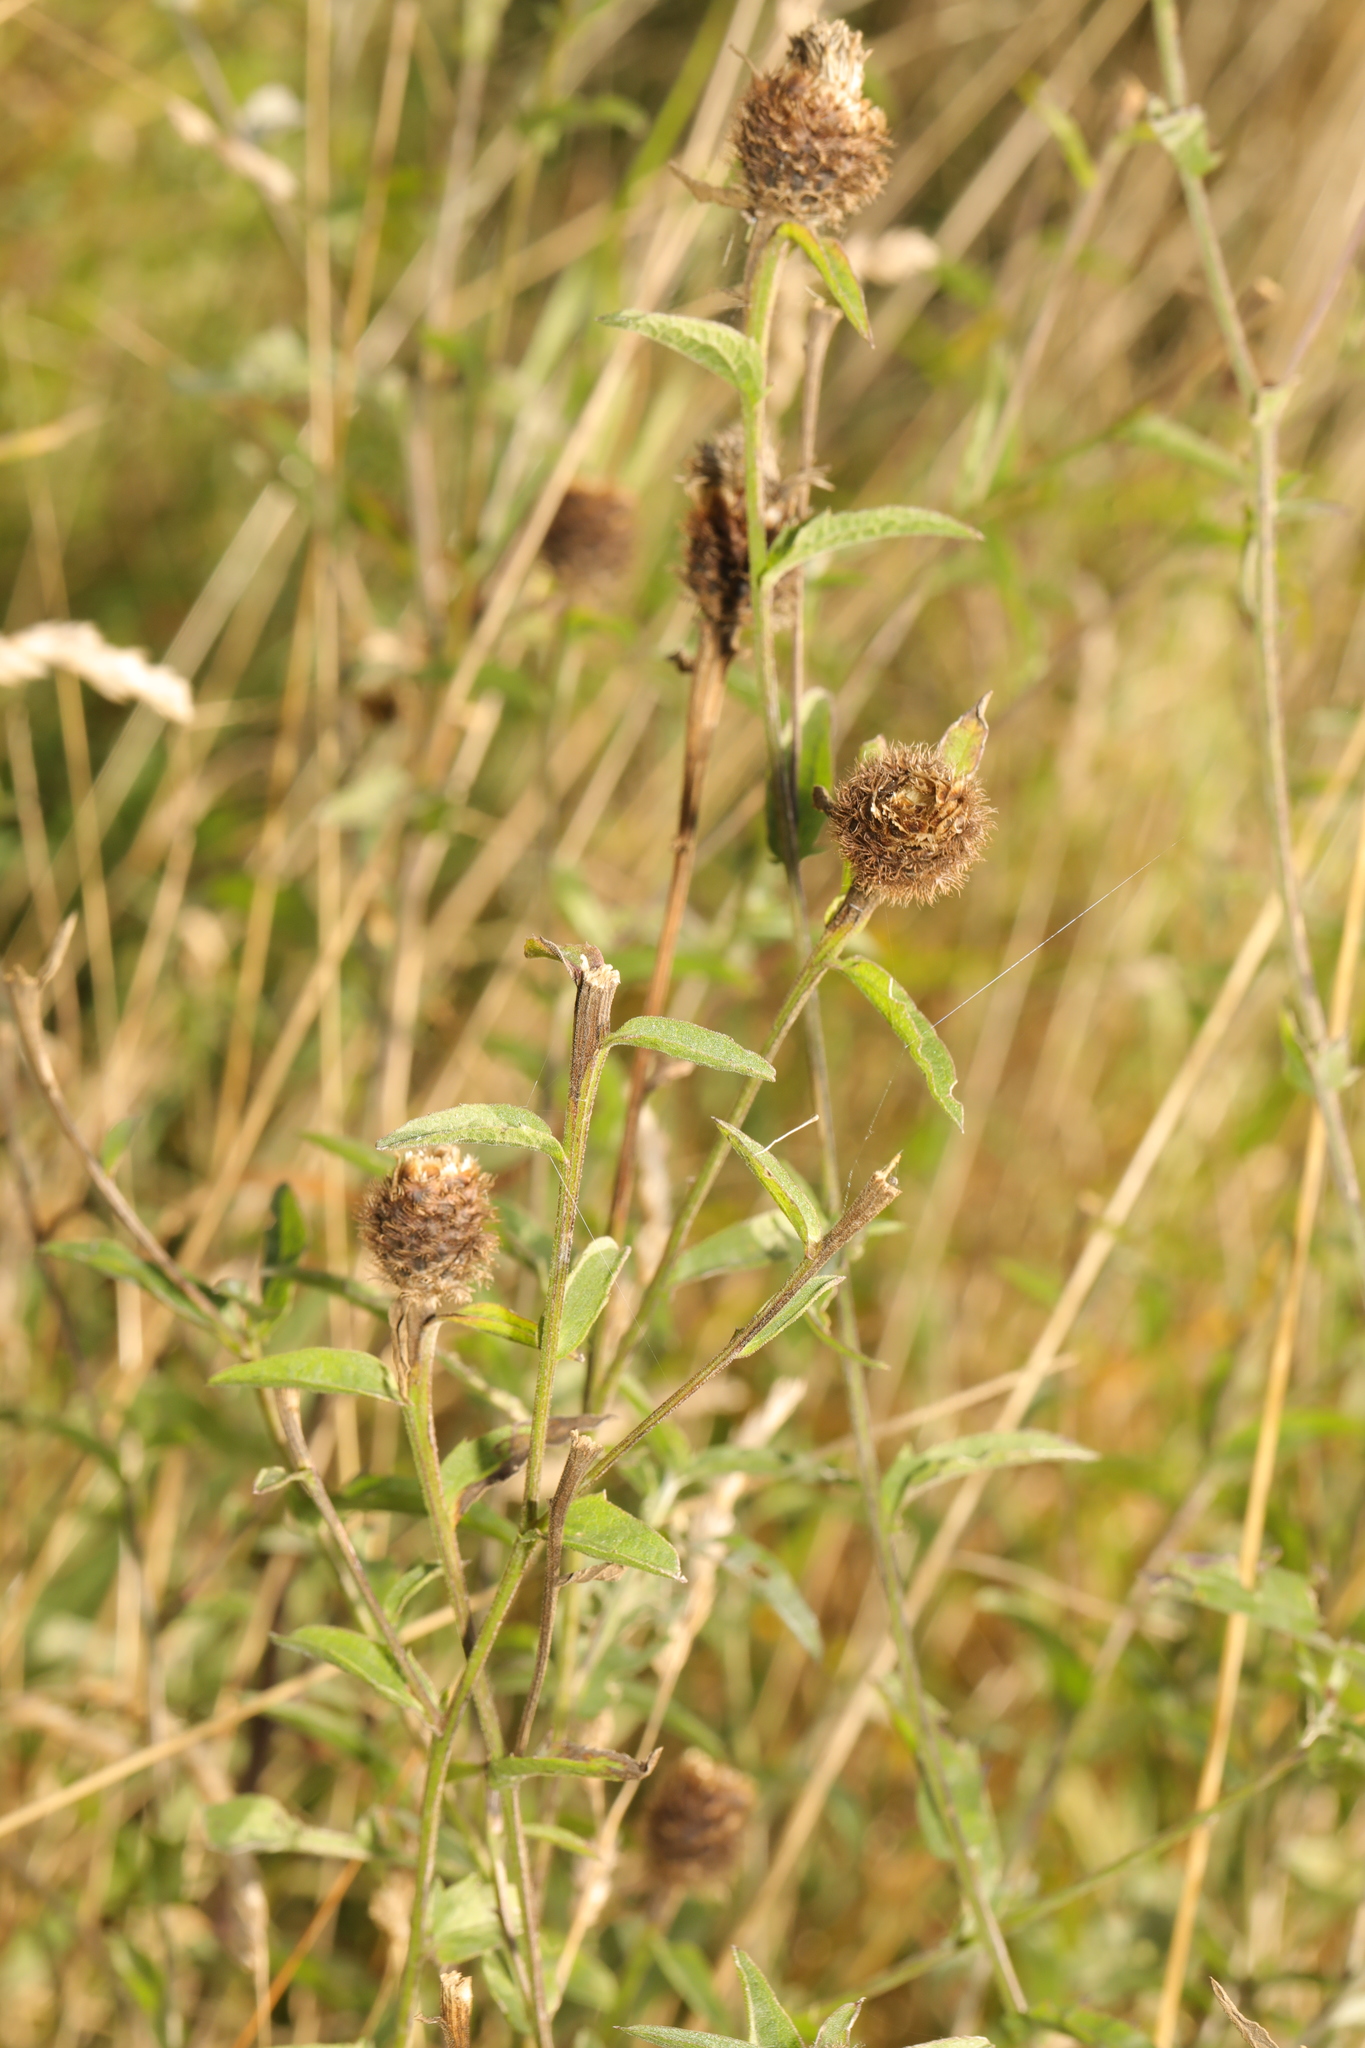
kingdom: Plantae
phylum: Tracheophyta
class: Magnoliopsida
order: Asterales
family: Asteraceae
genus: Centaurea
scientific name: Centaurea nigra
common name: Lesser knapweed
